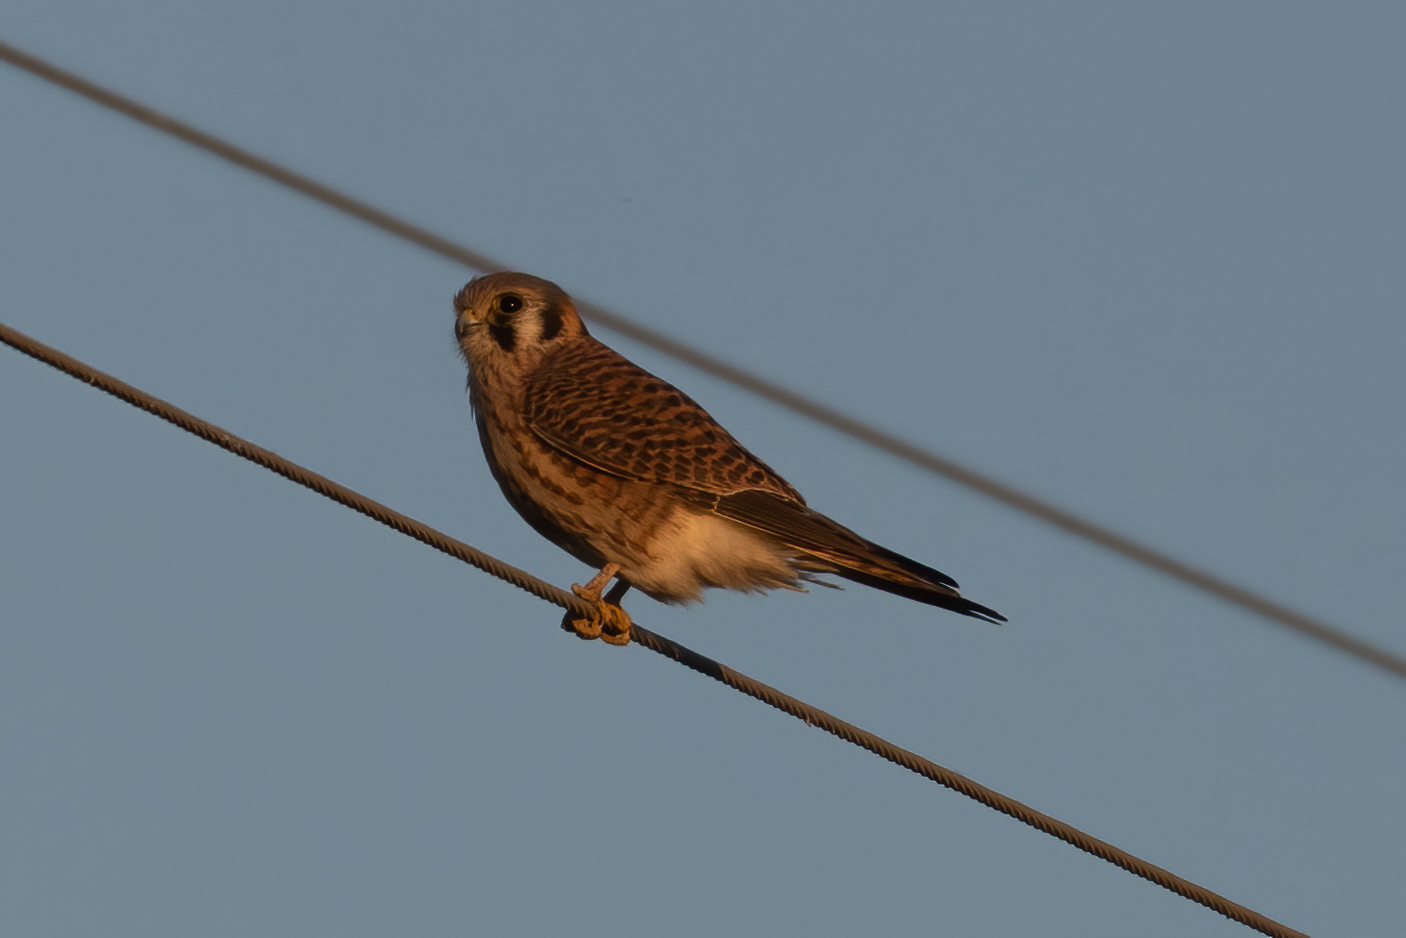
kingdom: Animalia
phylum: Chordata
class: Aves
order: Falconiformes
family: Falconidae
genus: Falco
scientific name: Falco sparverius
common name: American kestrel
